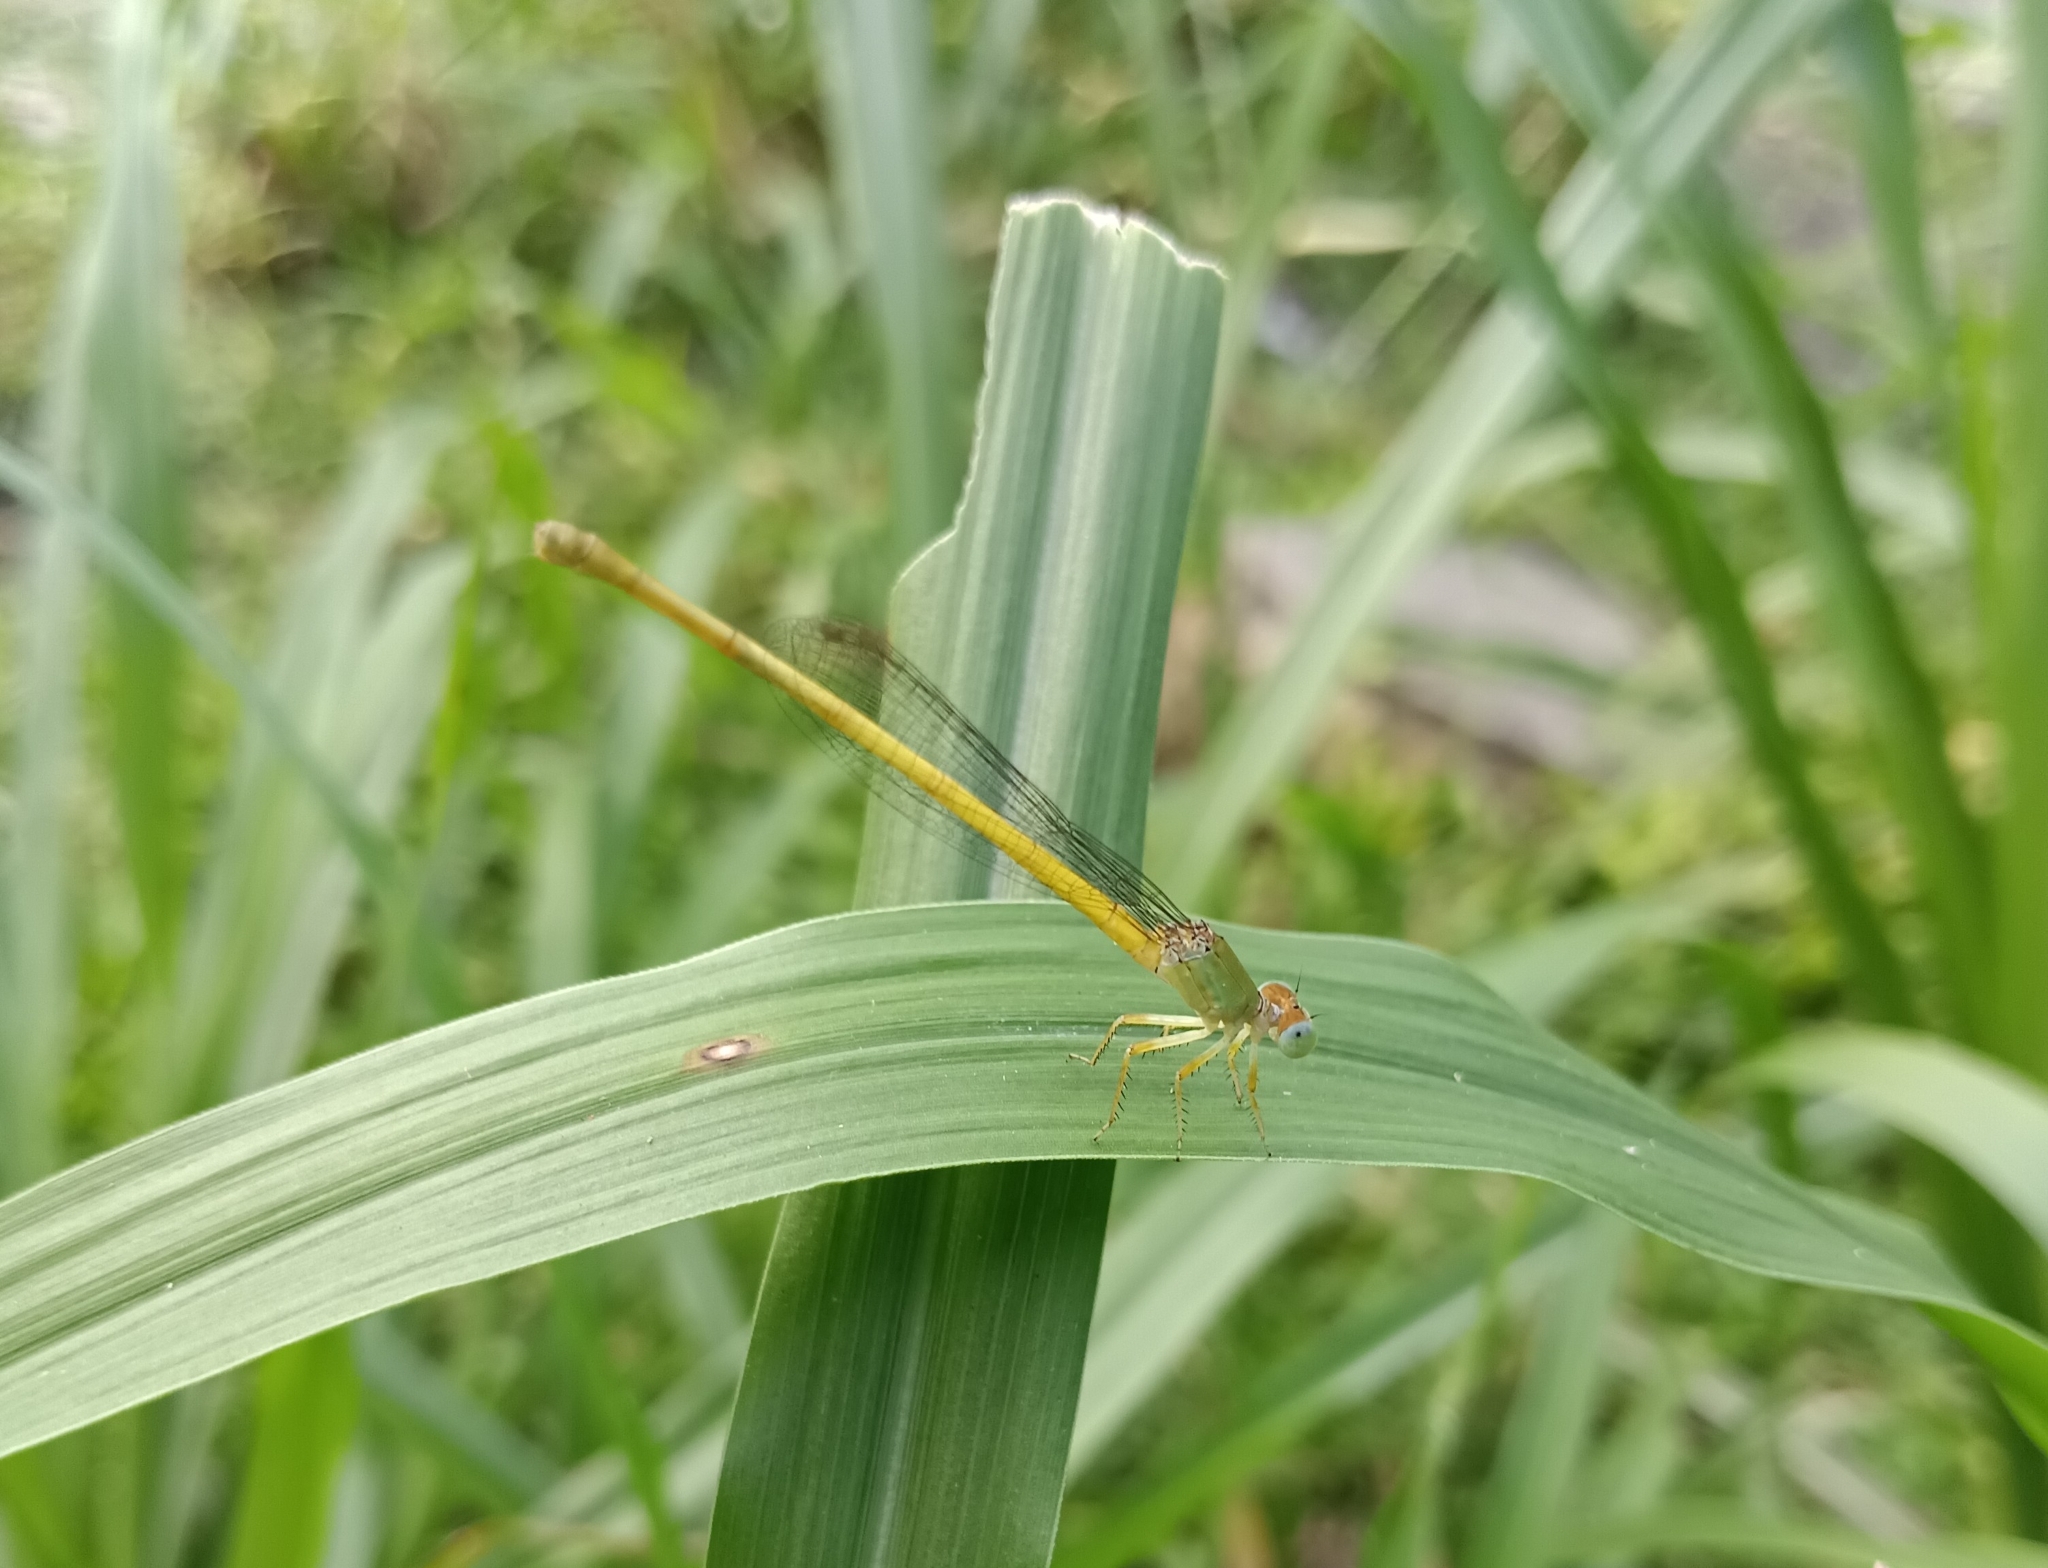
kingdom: Animalia
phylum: Arthropoda
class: Insecta
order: Odonata
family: Coenagrionidae
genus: Ceriagrion
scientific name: Ceriagrion coromandelianum
